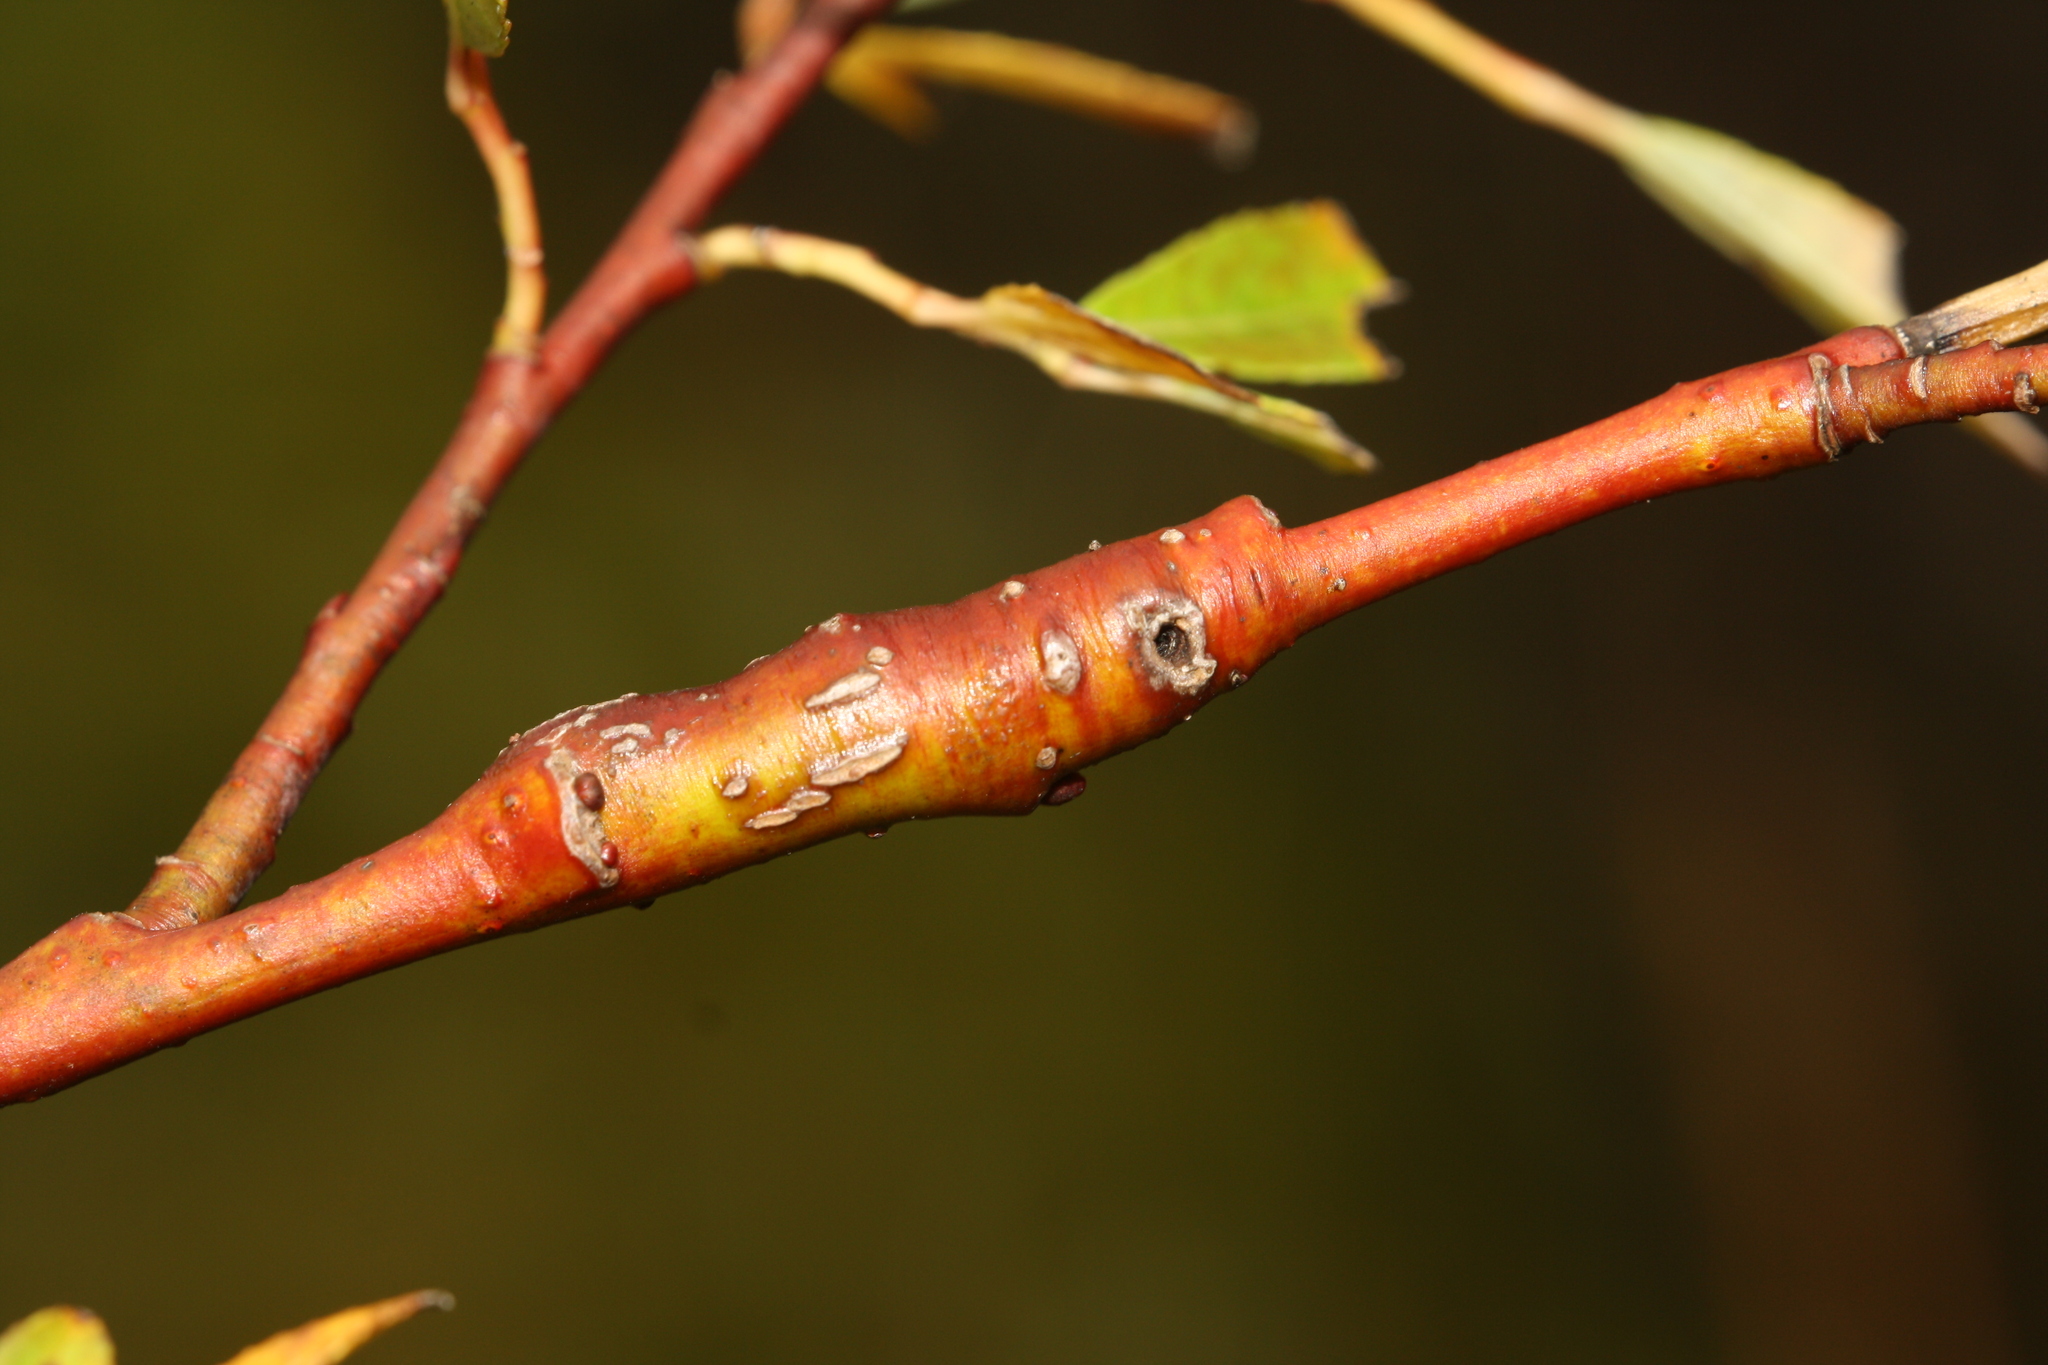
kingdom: Animalia
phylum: Arthropoda
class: Insecta
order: Hymenoptera
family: Tenthredinidae
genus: Euura
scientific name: Euura elaeagnos
